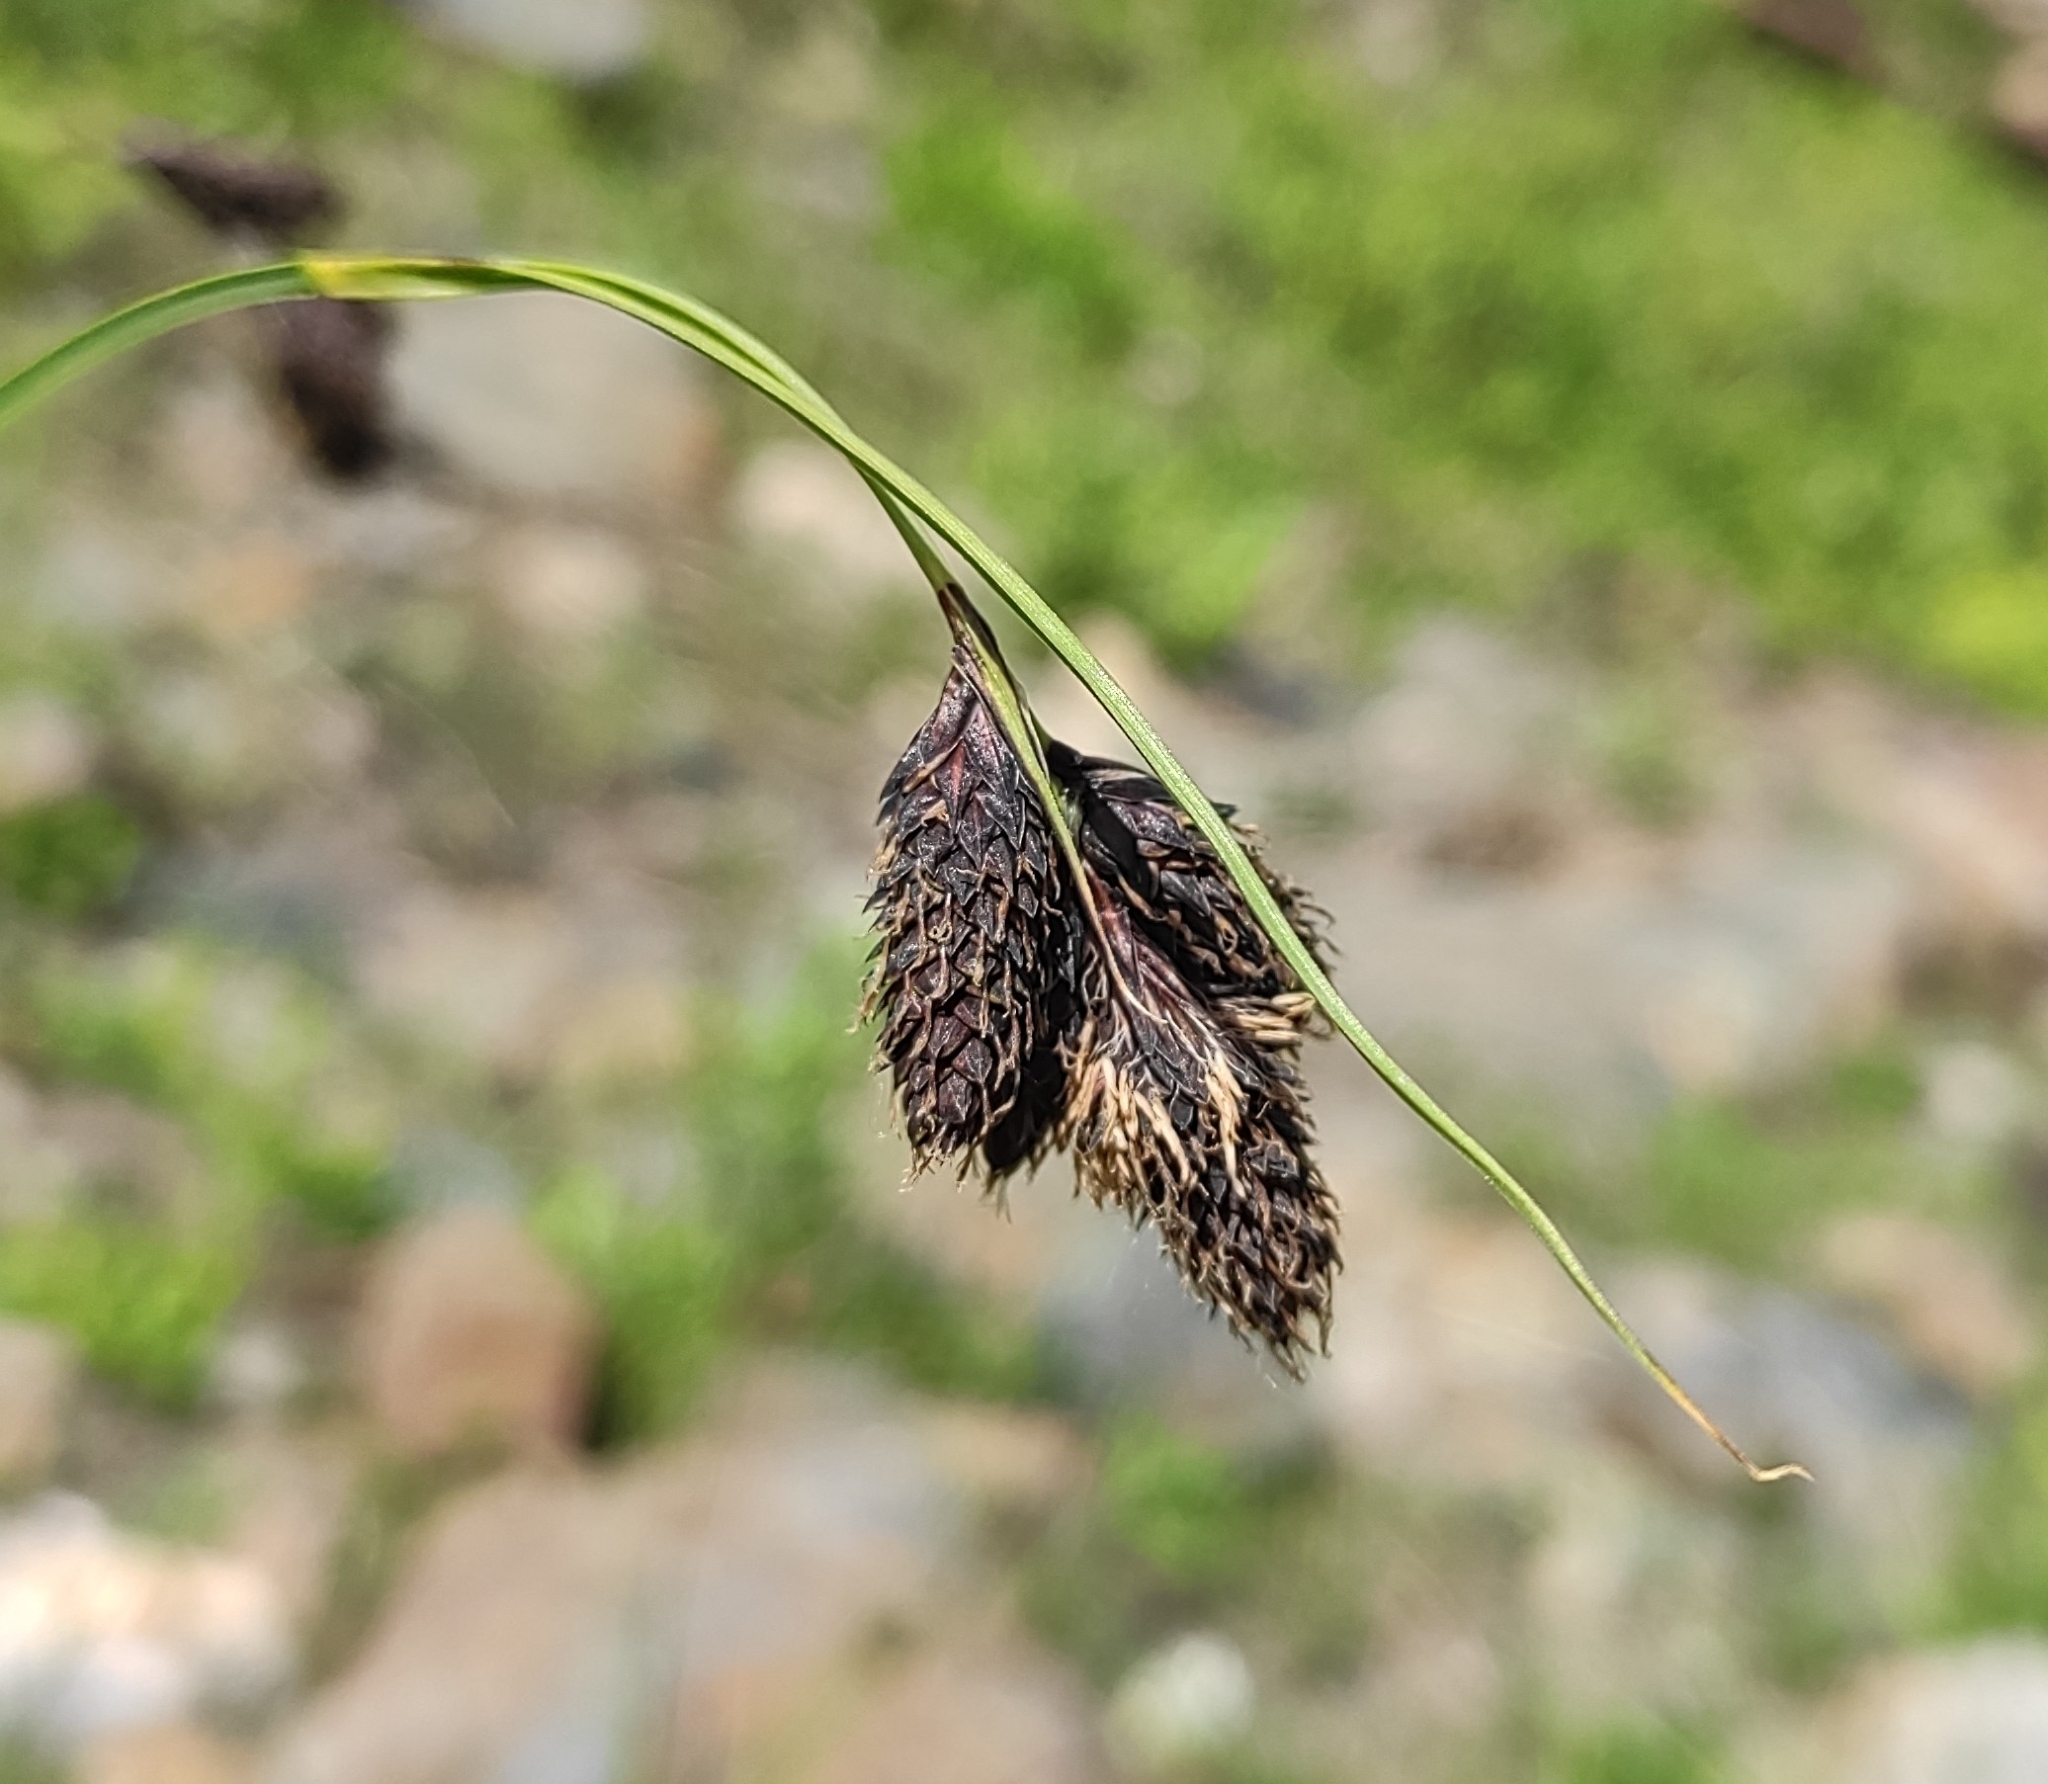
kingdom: Plantae
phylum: Tracheophyta
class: Liliopsida
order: Poales
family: Cyperaceae
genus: Carex
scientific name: Carex aterrima
